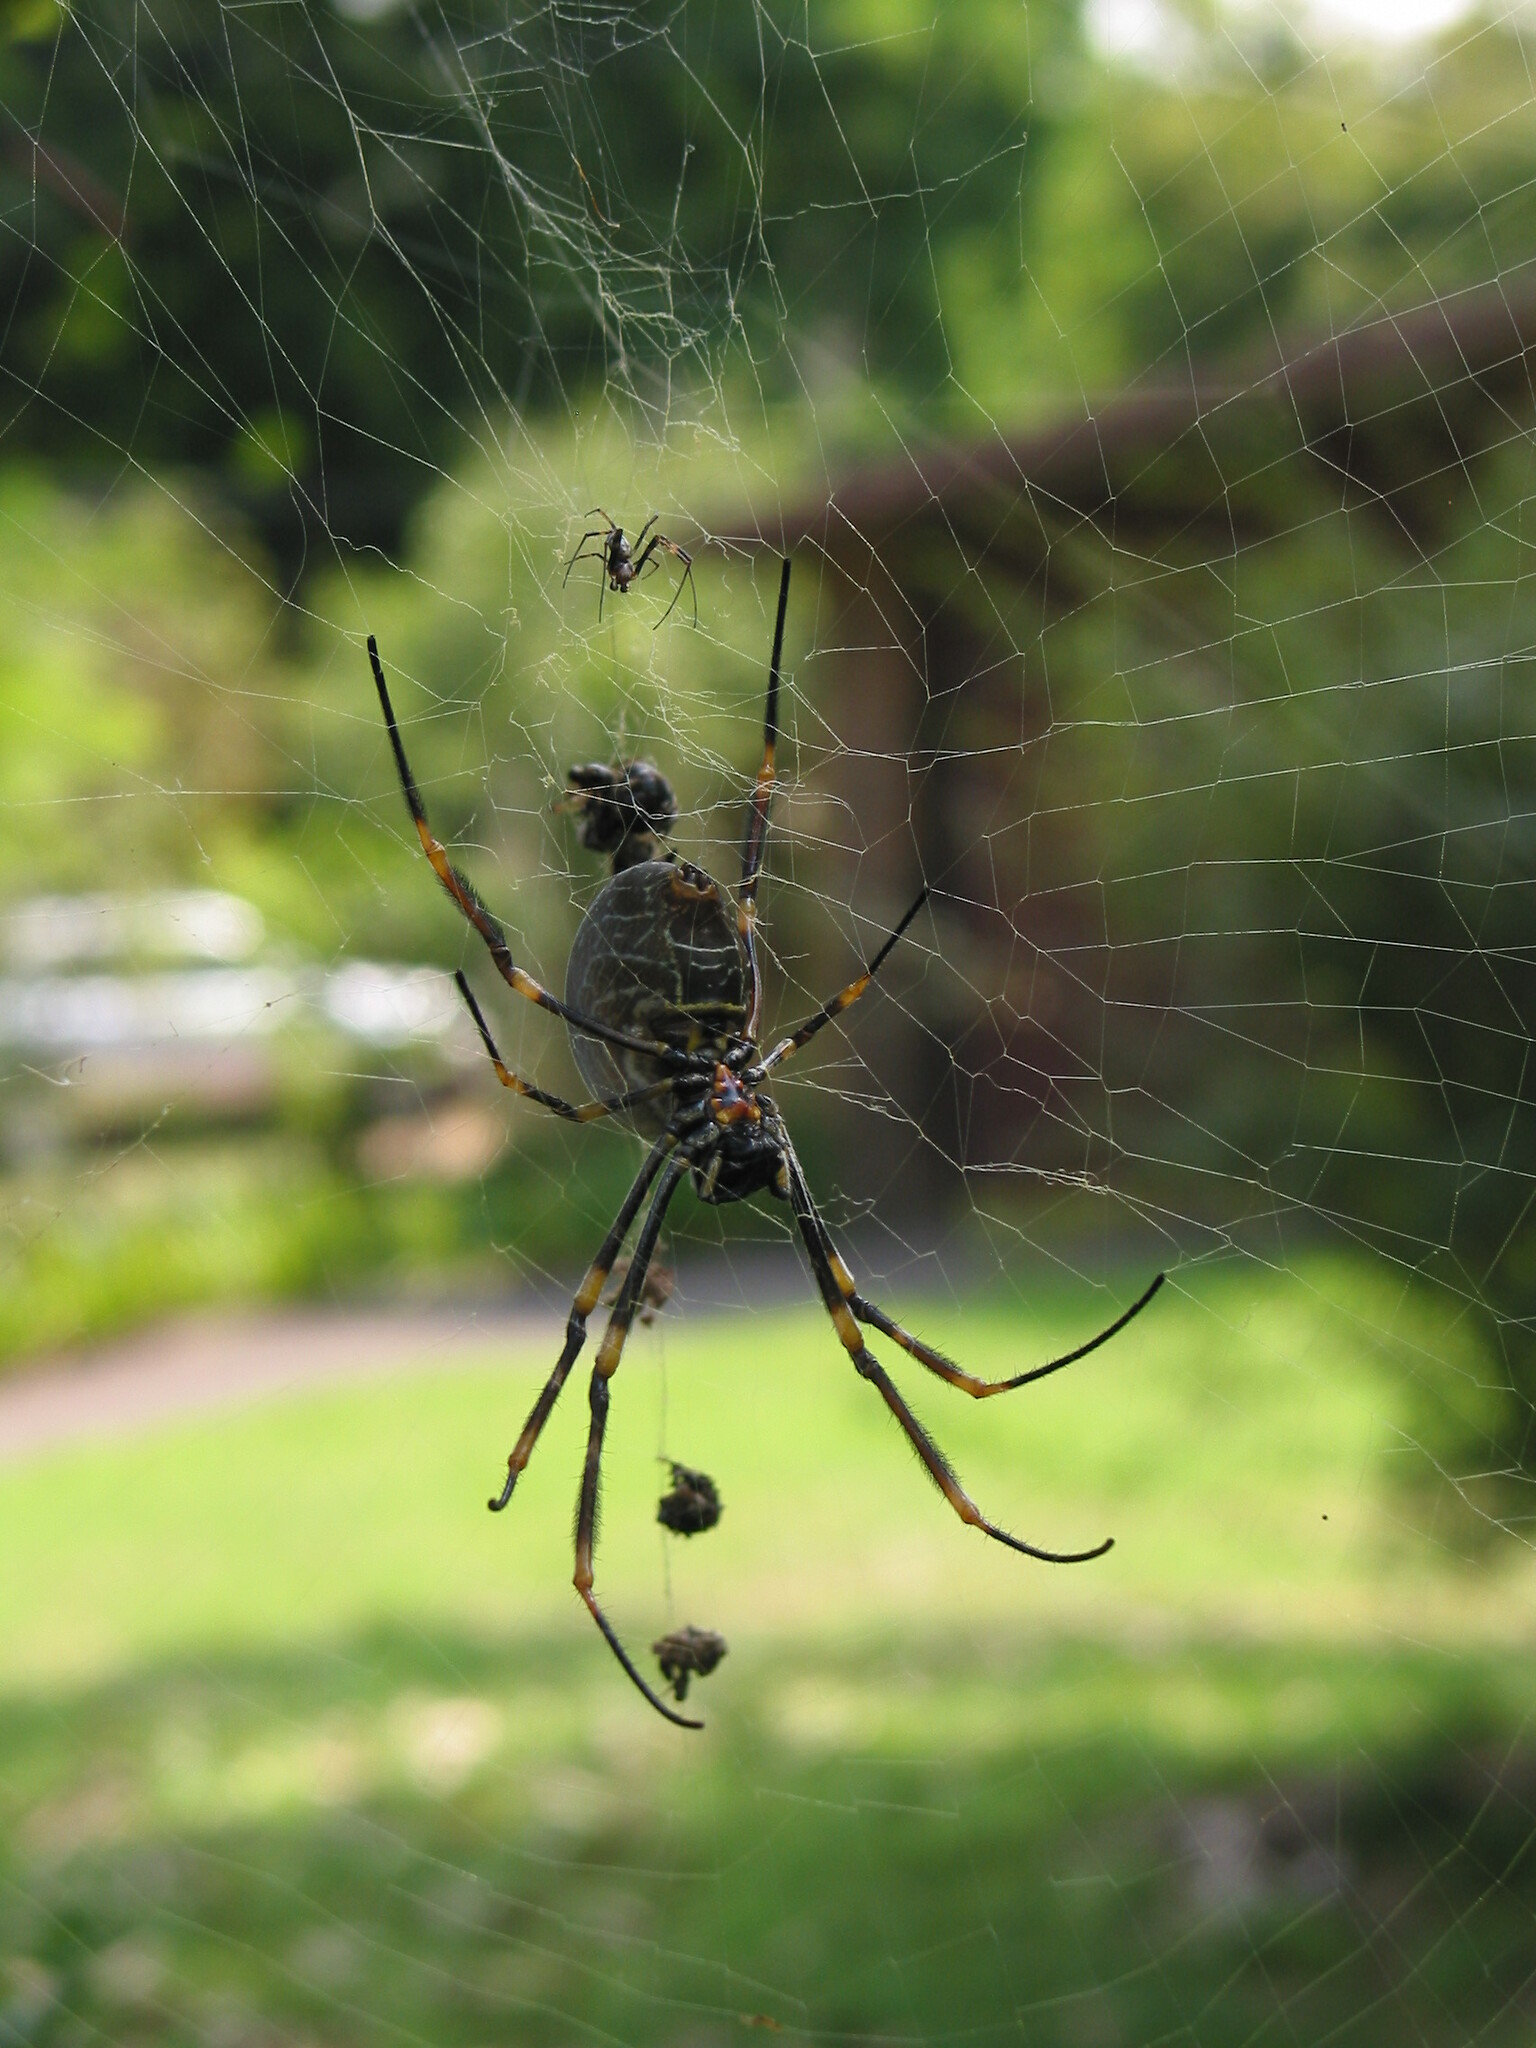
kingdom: Animalia
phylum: Arthropoda
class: Arachnida
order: Araneae
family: Araneidae
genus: Trichonephila
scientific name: Trichonephila plumipes
